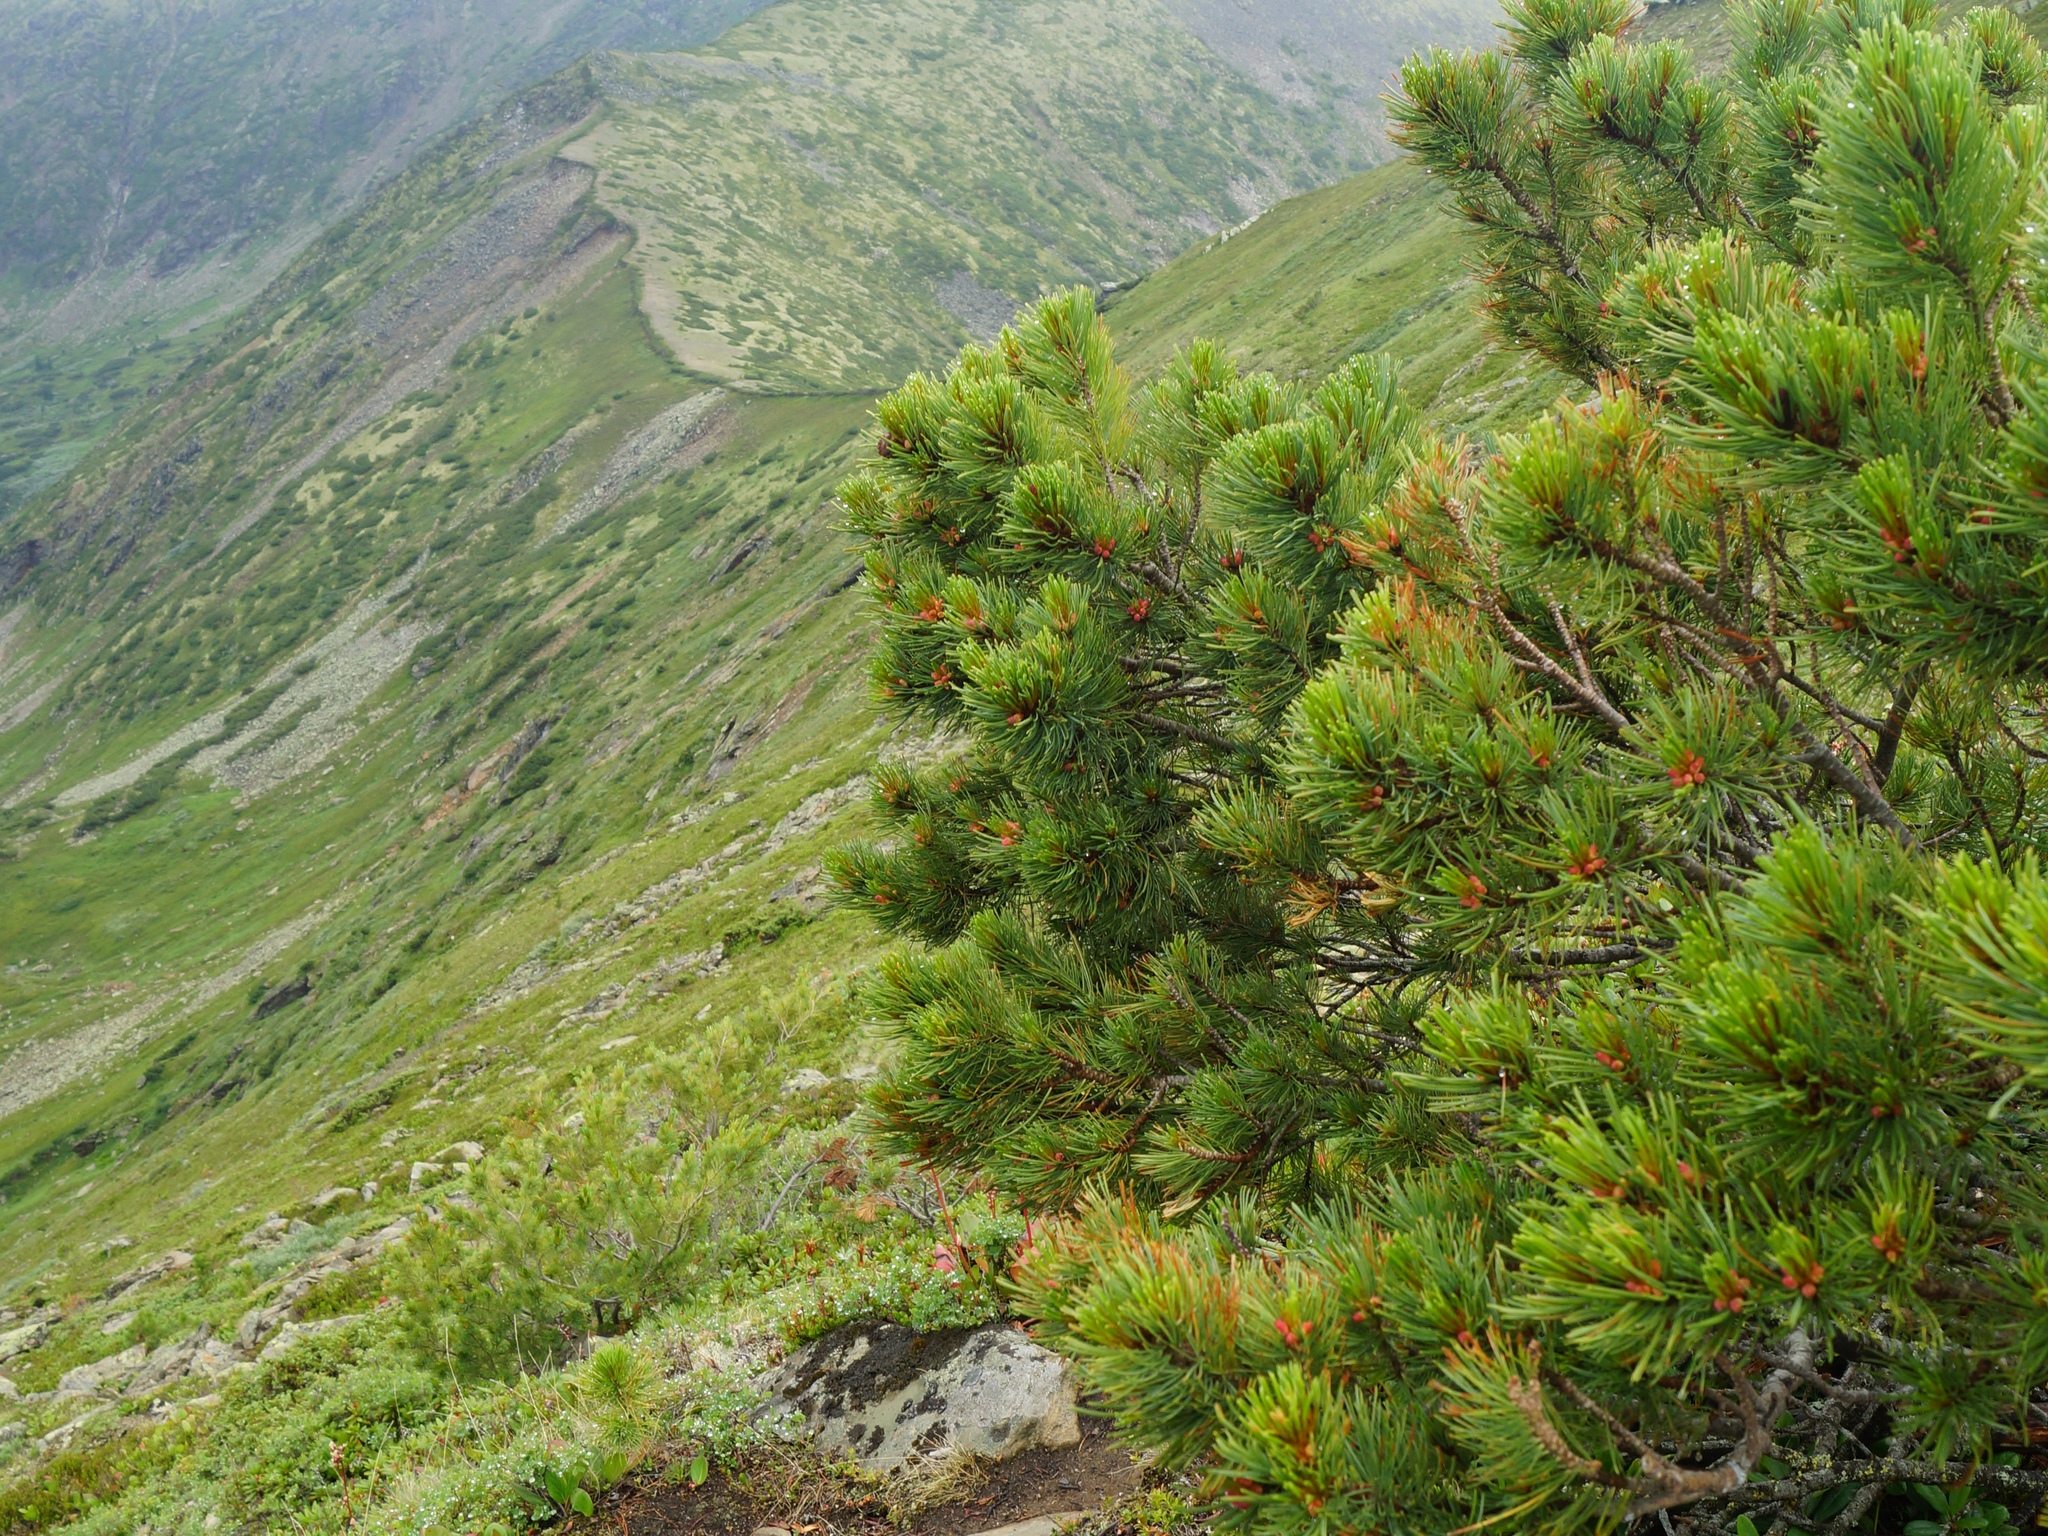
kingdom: Plantae
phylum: Tracheophyta
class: Pinopsida
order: Pinales
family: Pinaceae
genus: Pinus
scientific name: Pinus pumila
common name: Dwarf siberian pine
